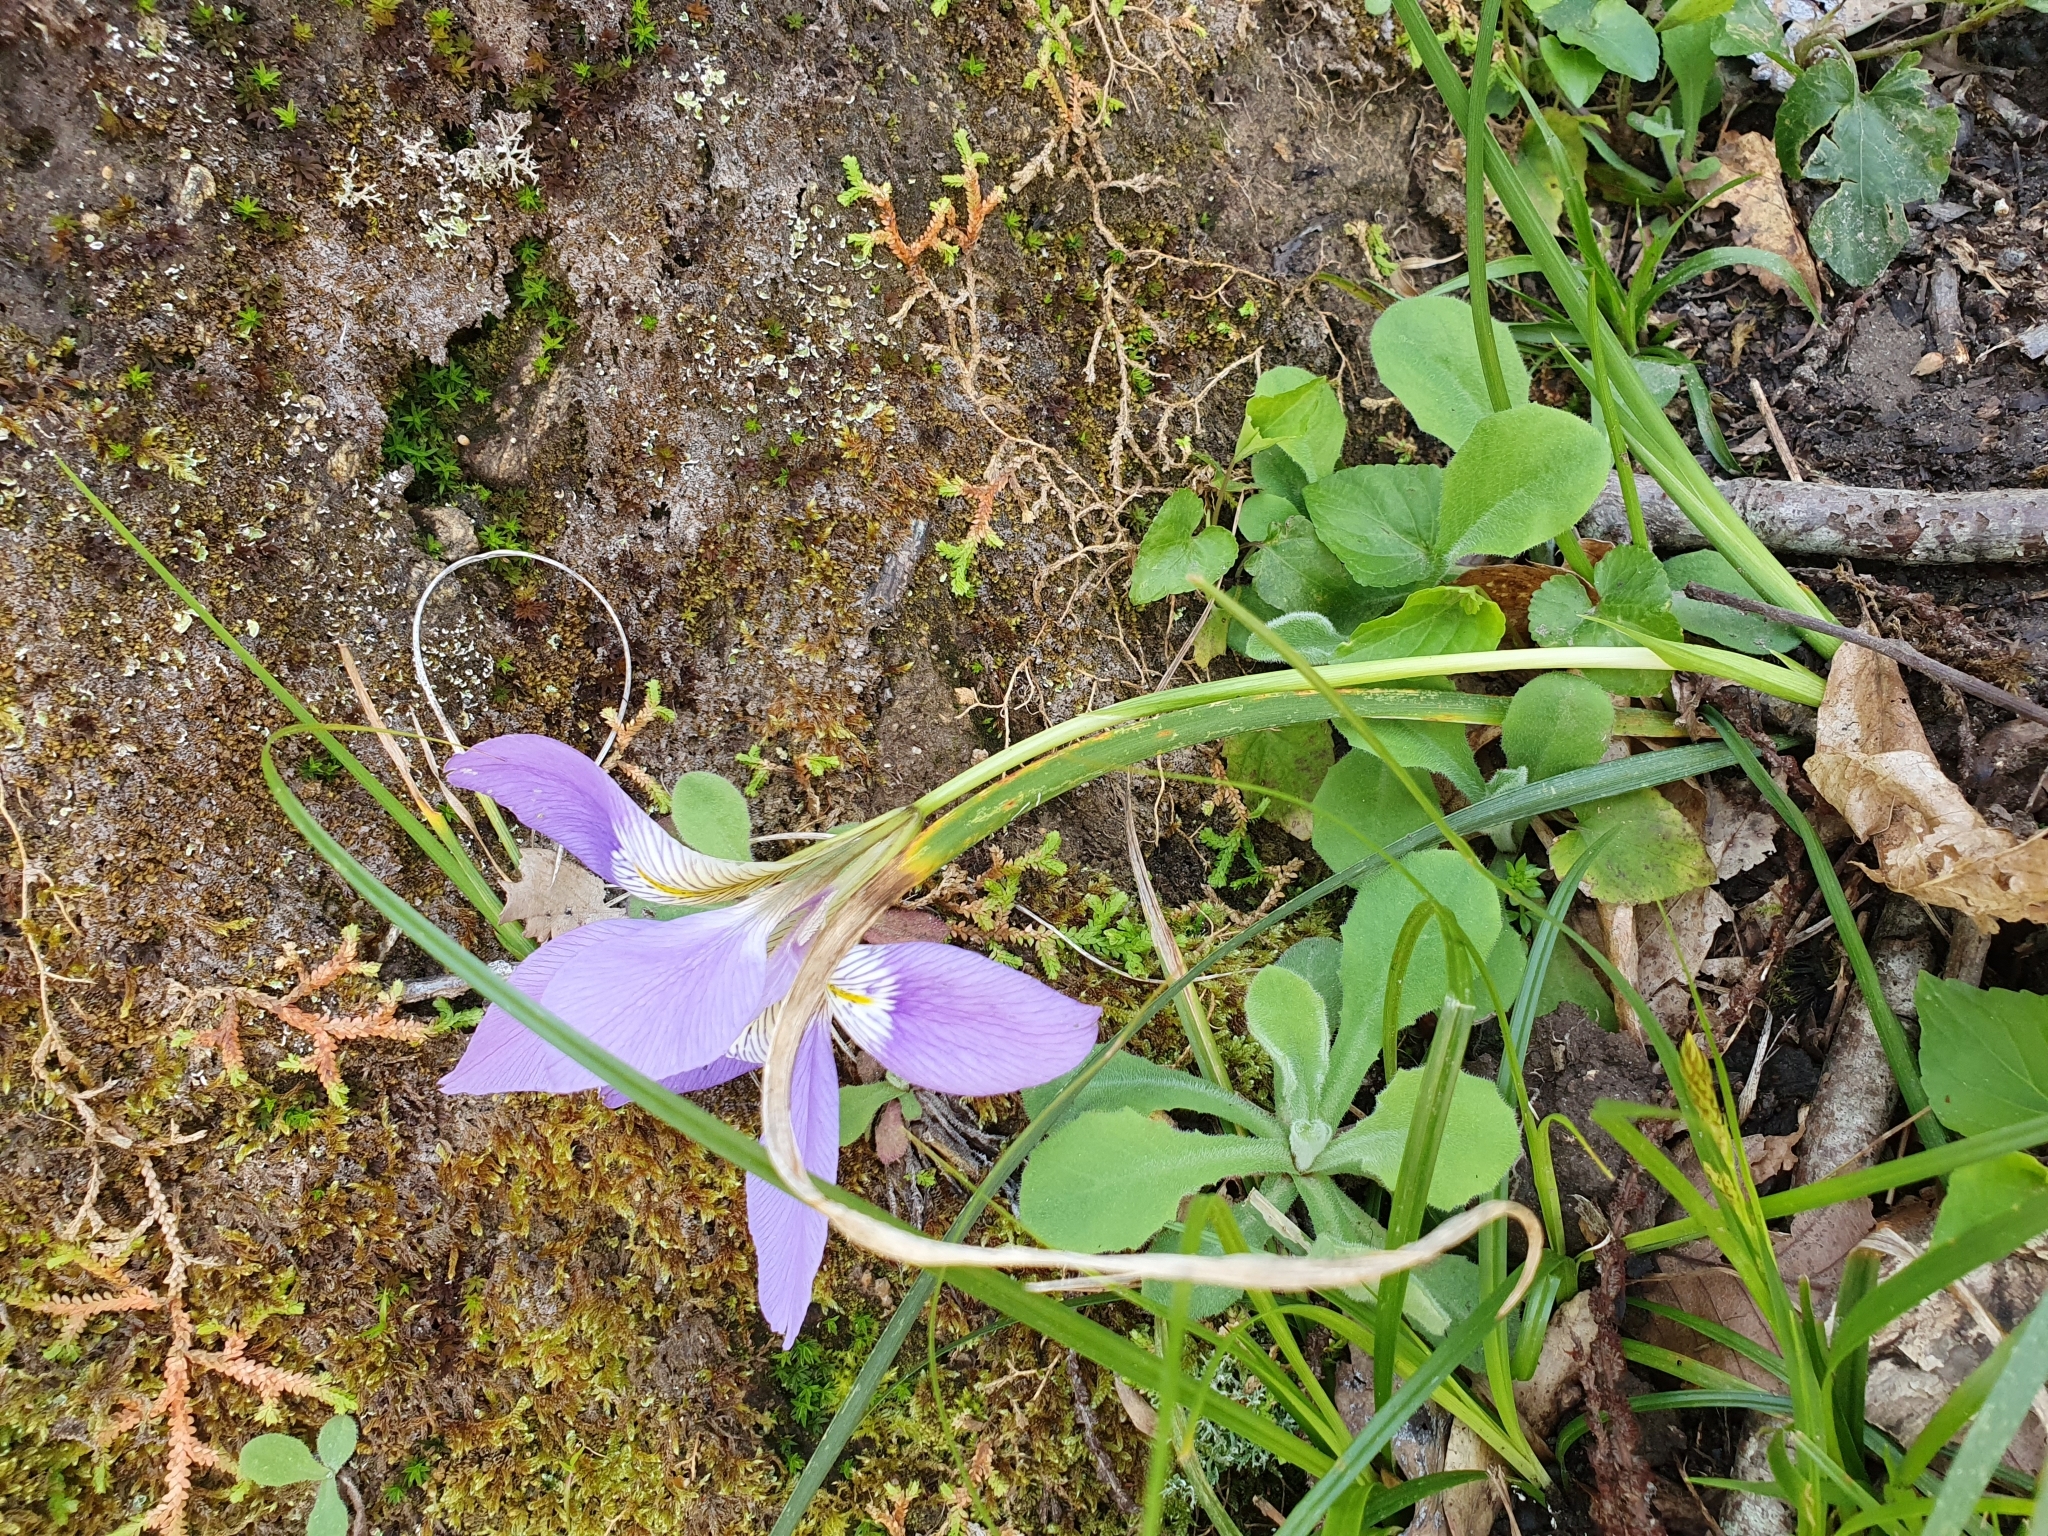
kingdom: Plantae
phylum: Tracheophyta
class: Liliopsida
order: Asparagales
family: Iridaceae
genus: Iris
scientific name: Iris unguicularis
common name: Algerian iris
